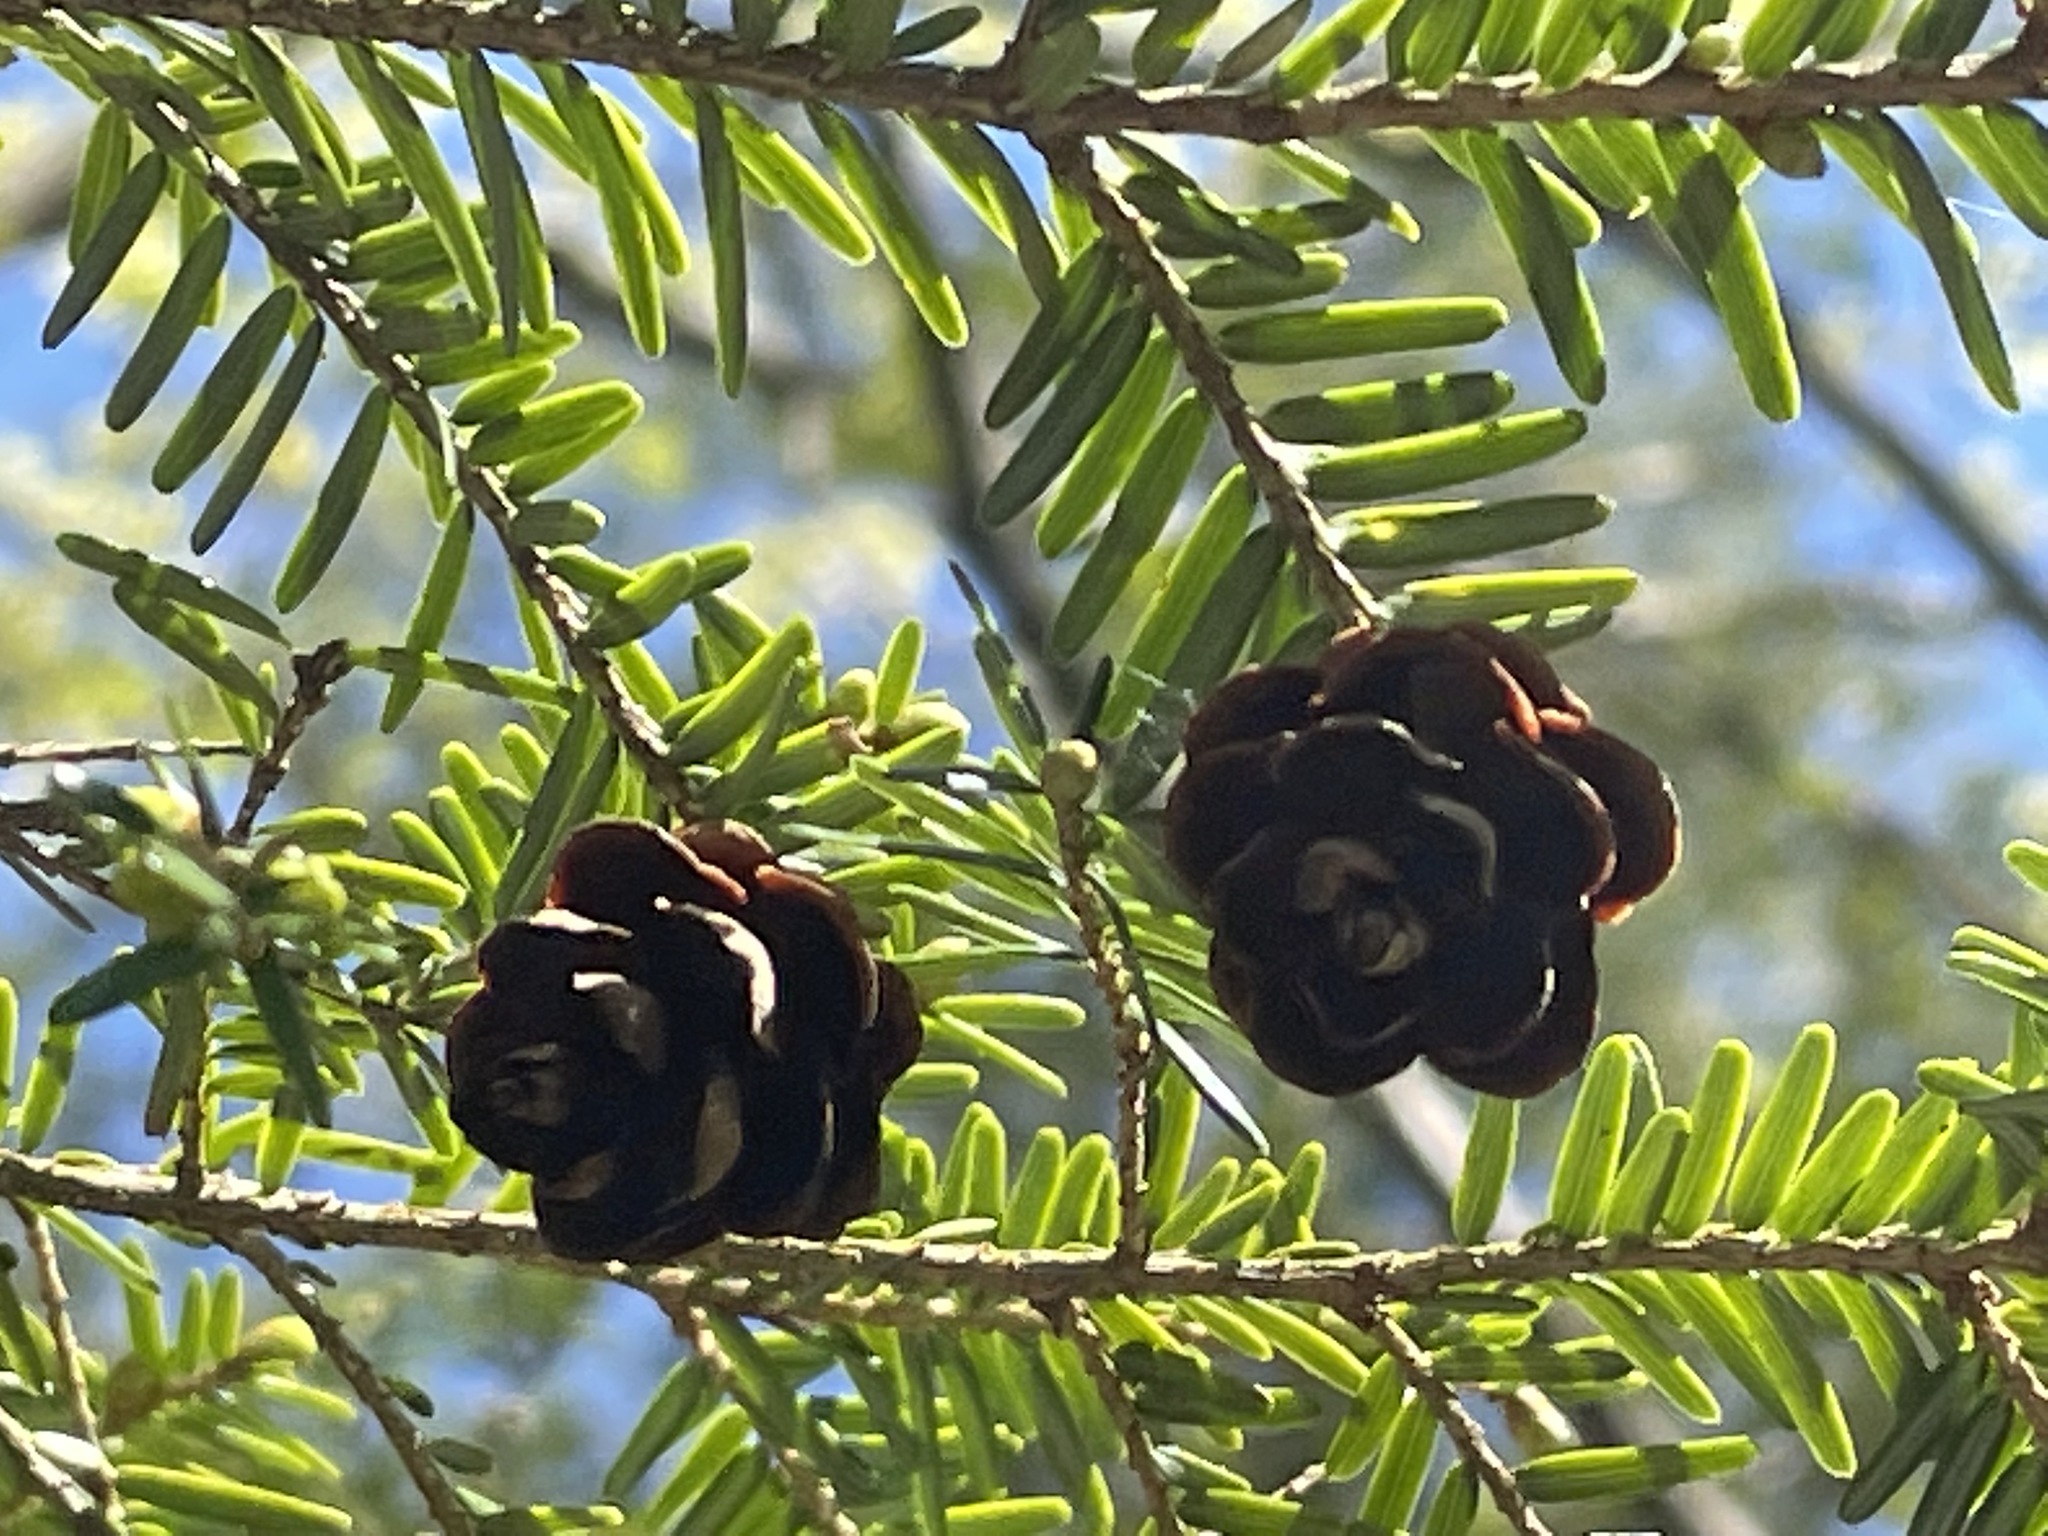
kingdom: Plantae
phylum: Tracheophyta
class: Pinopsida
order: Pinales
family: Pinaceae
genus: Tsuga
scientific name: Tsuga canadensis
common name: Eastern hemlock
